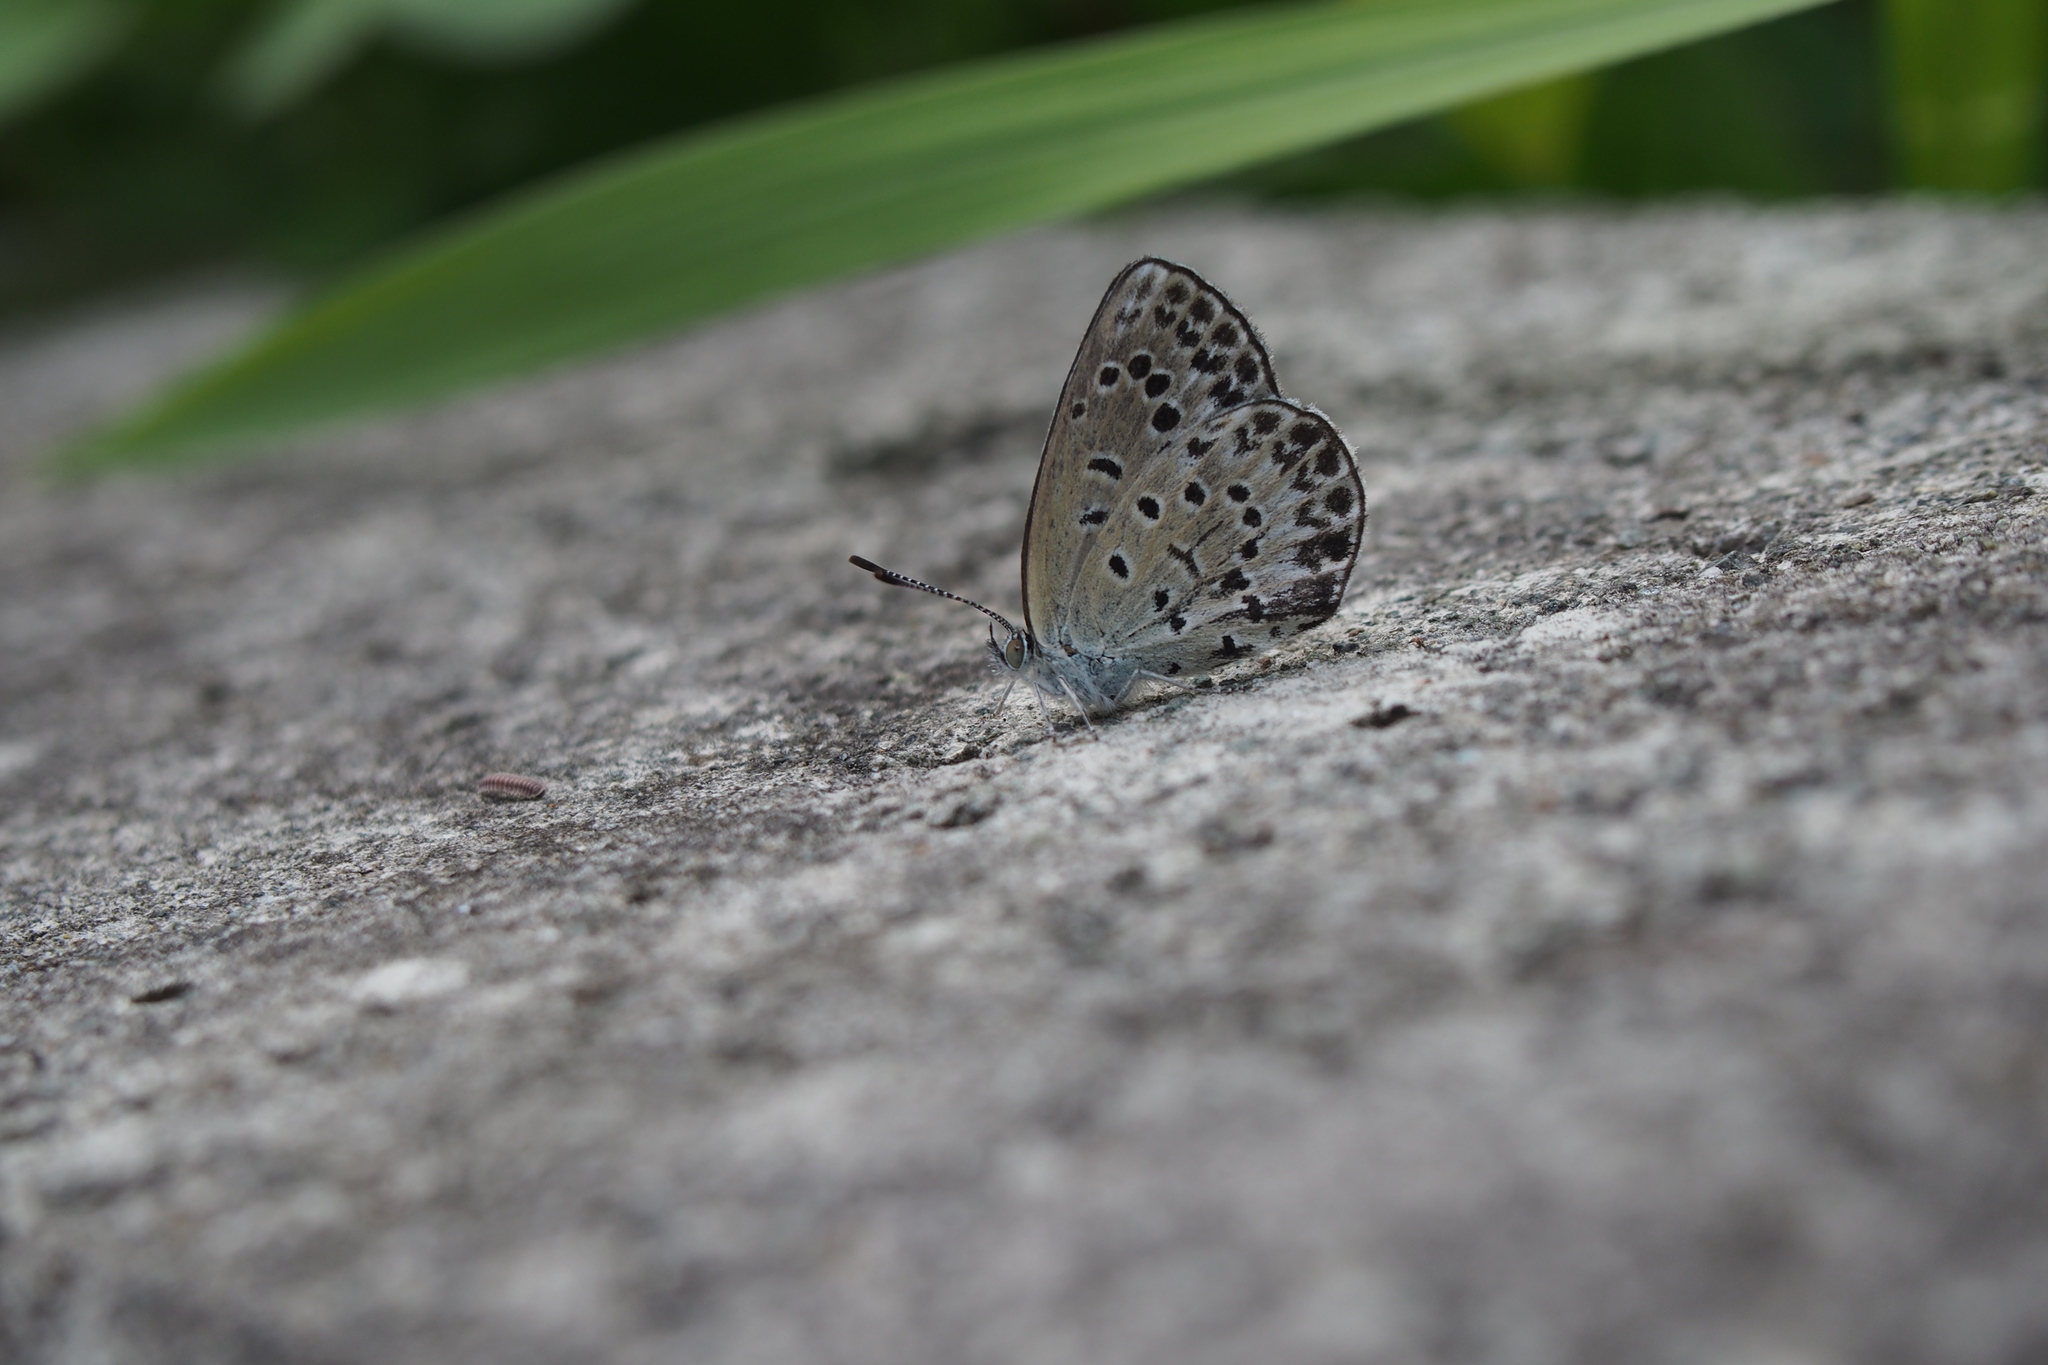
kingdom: Animalia
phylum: Arthropoda
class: Insecta
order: Lepidoptera
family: Lycaenidae
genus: Pseudozizeeria
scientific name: Pseudozizeeria maha
